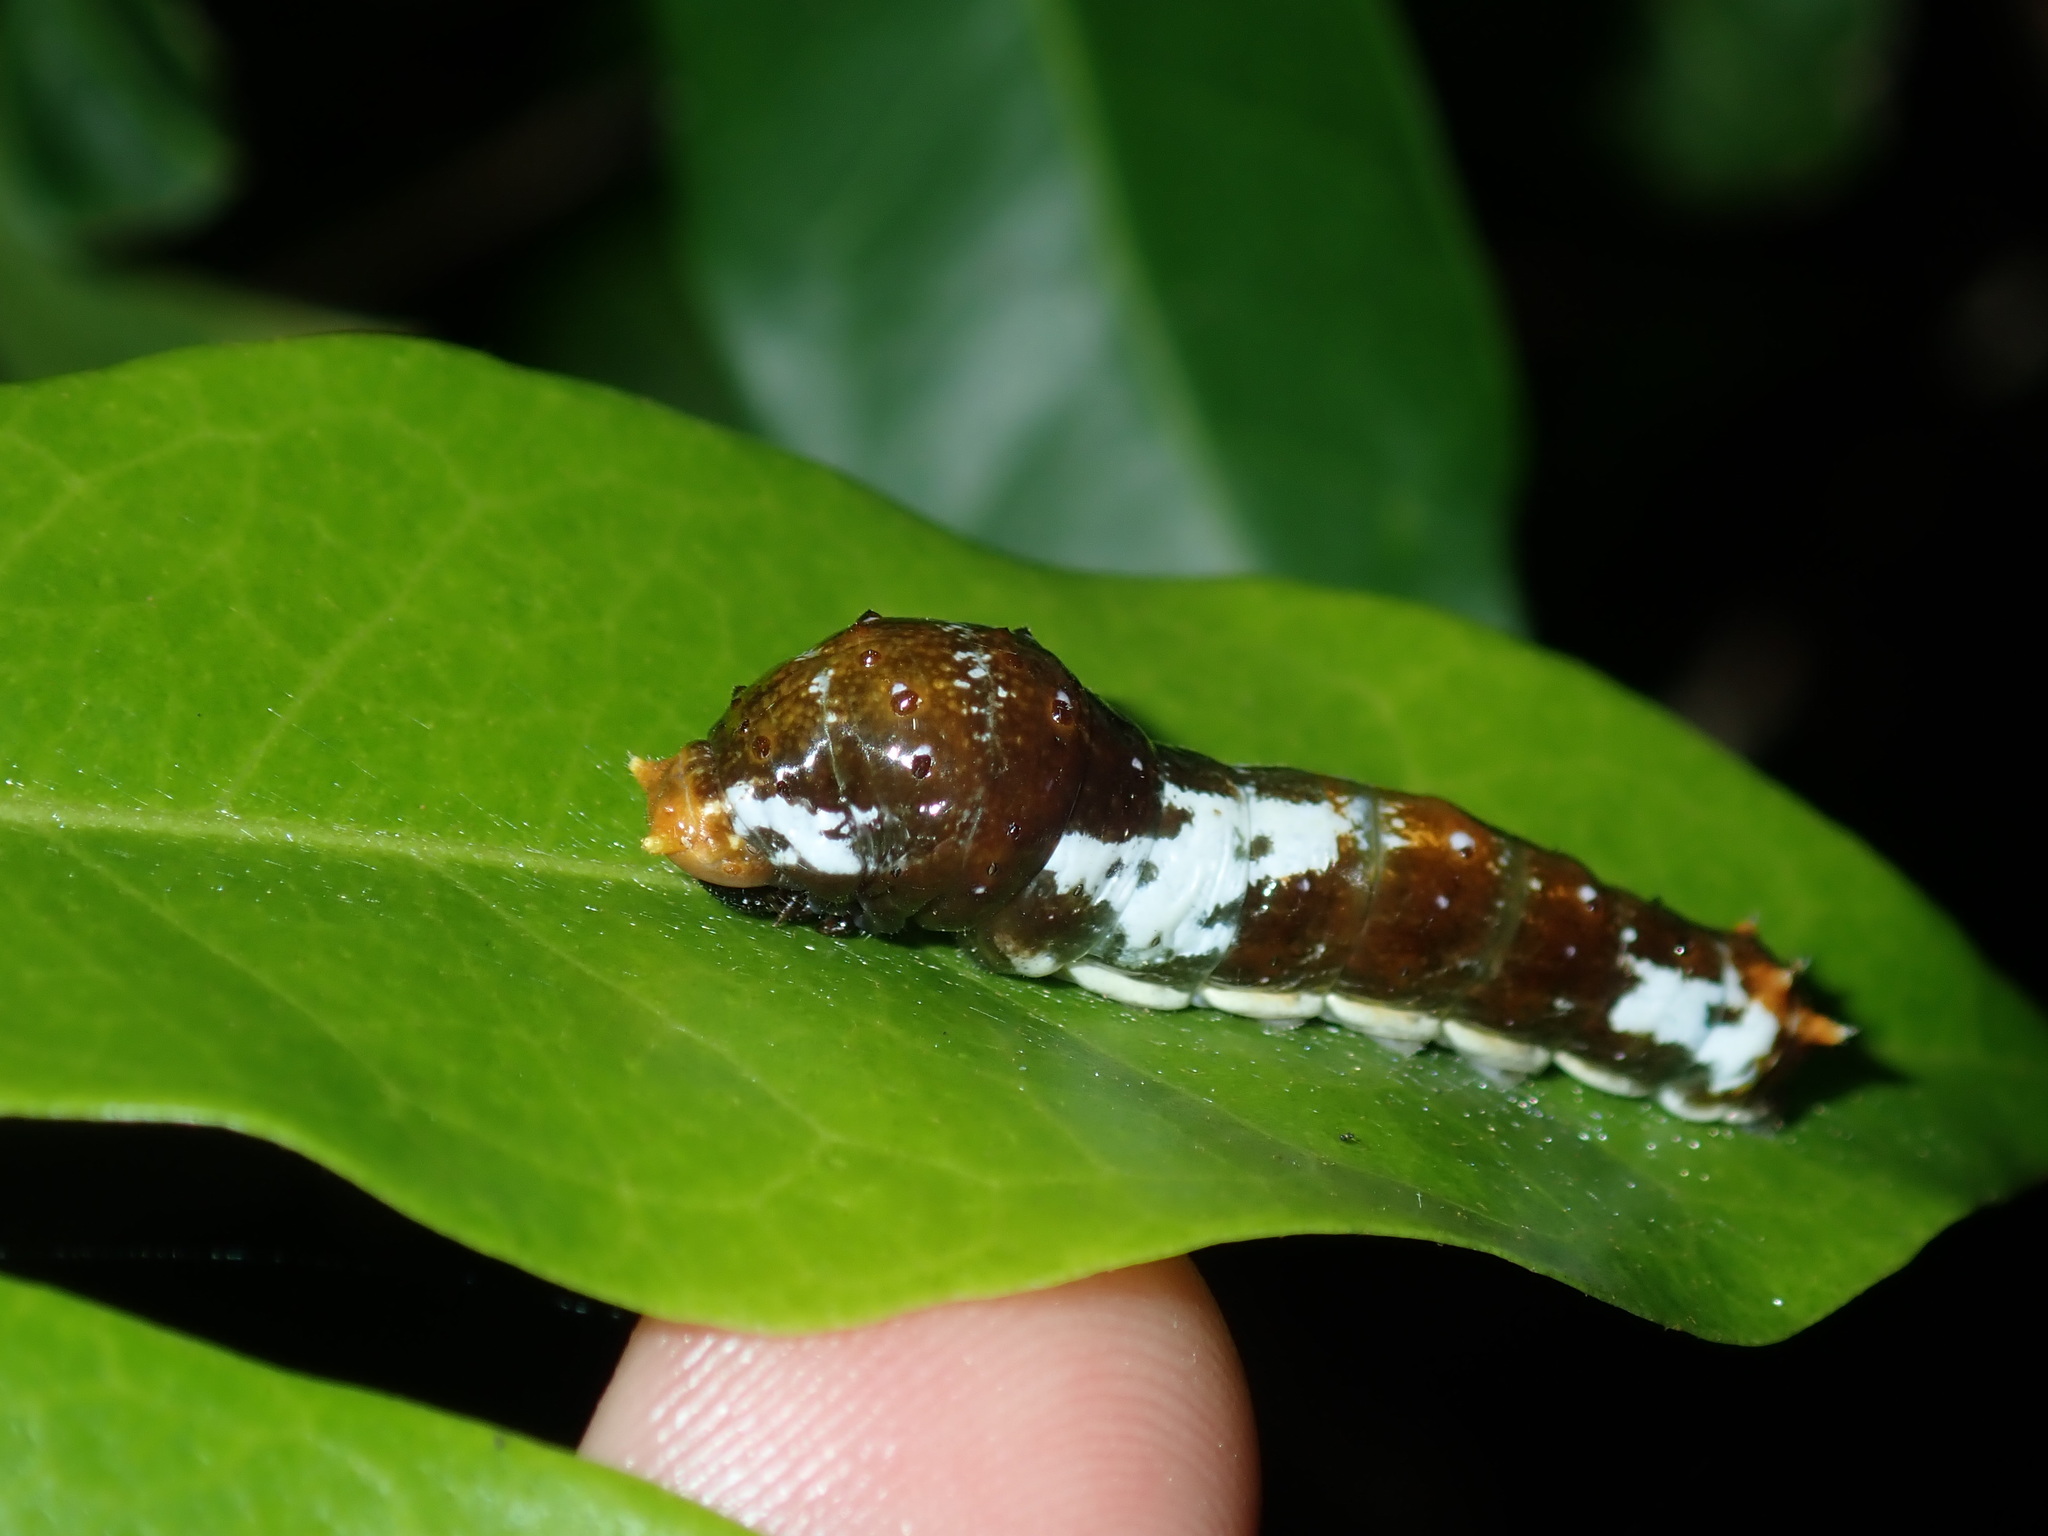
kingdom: Animalia
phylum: Arthropoda
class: Insecta
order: Lepidoptera
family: Papilionidae
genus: Papilio
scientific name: Papilio canopus
